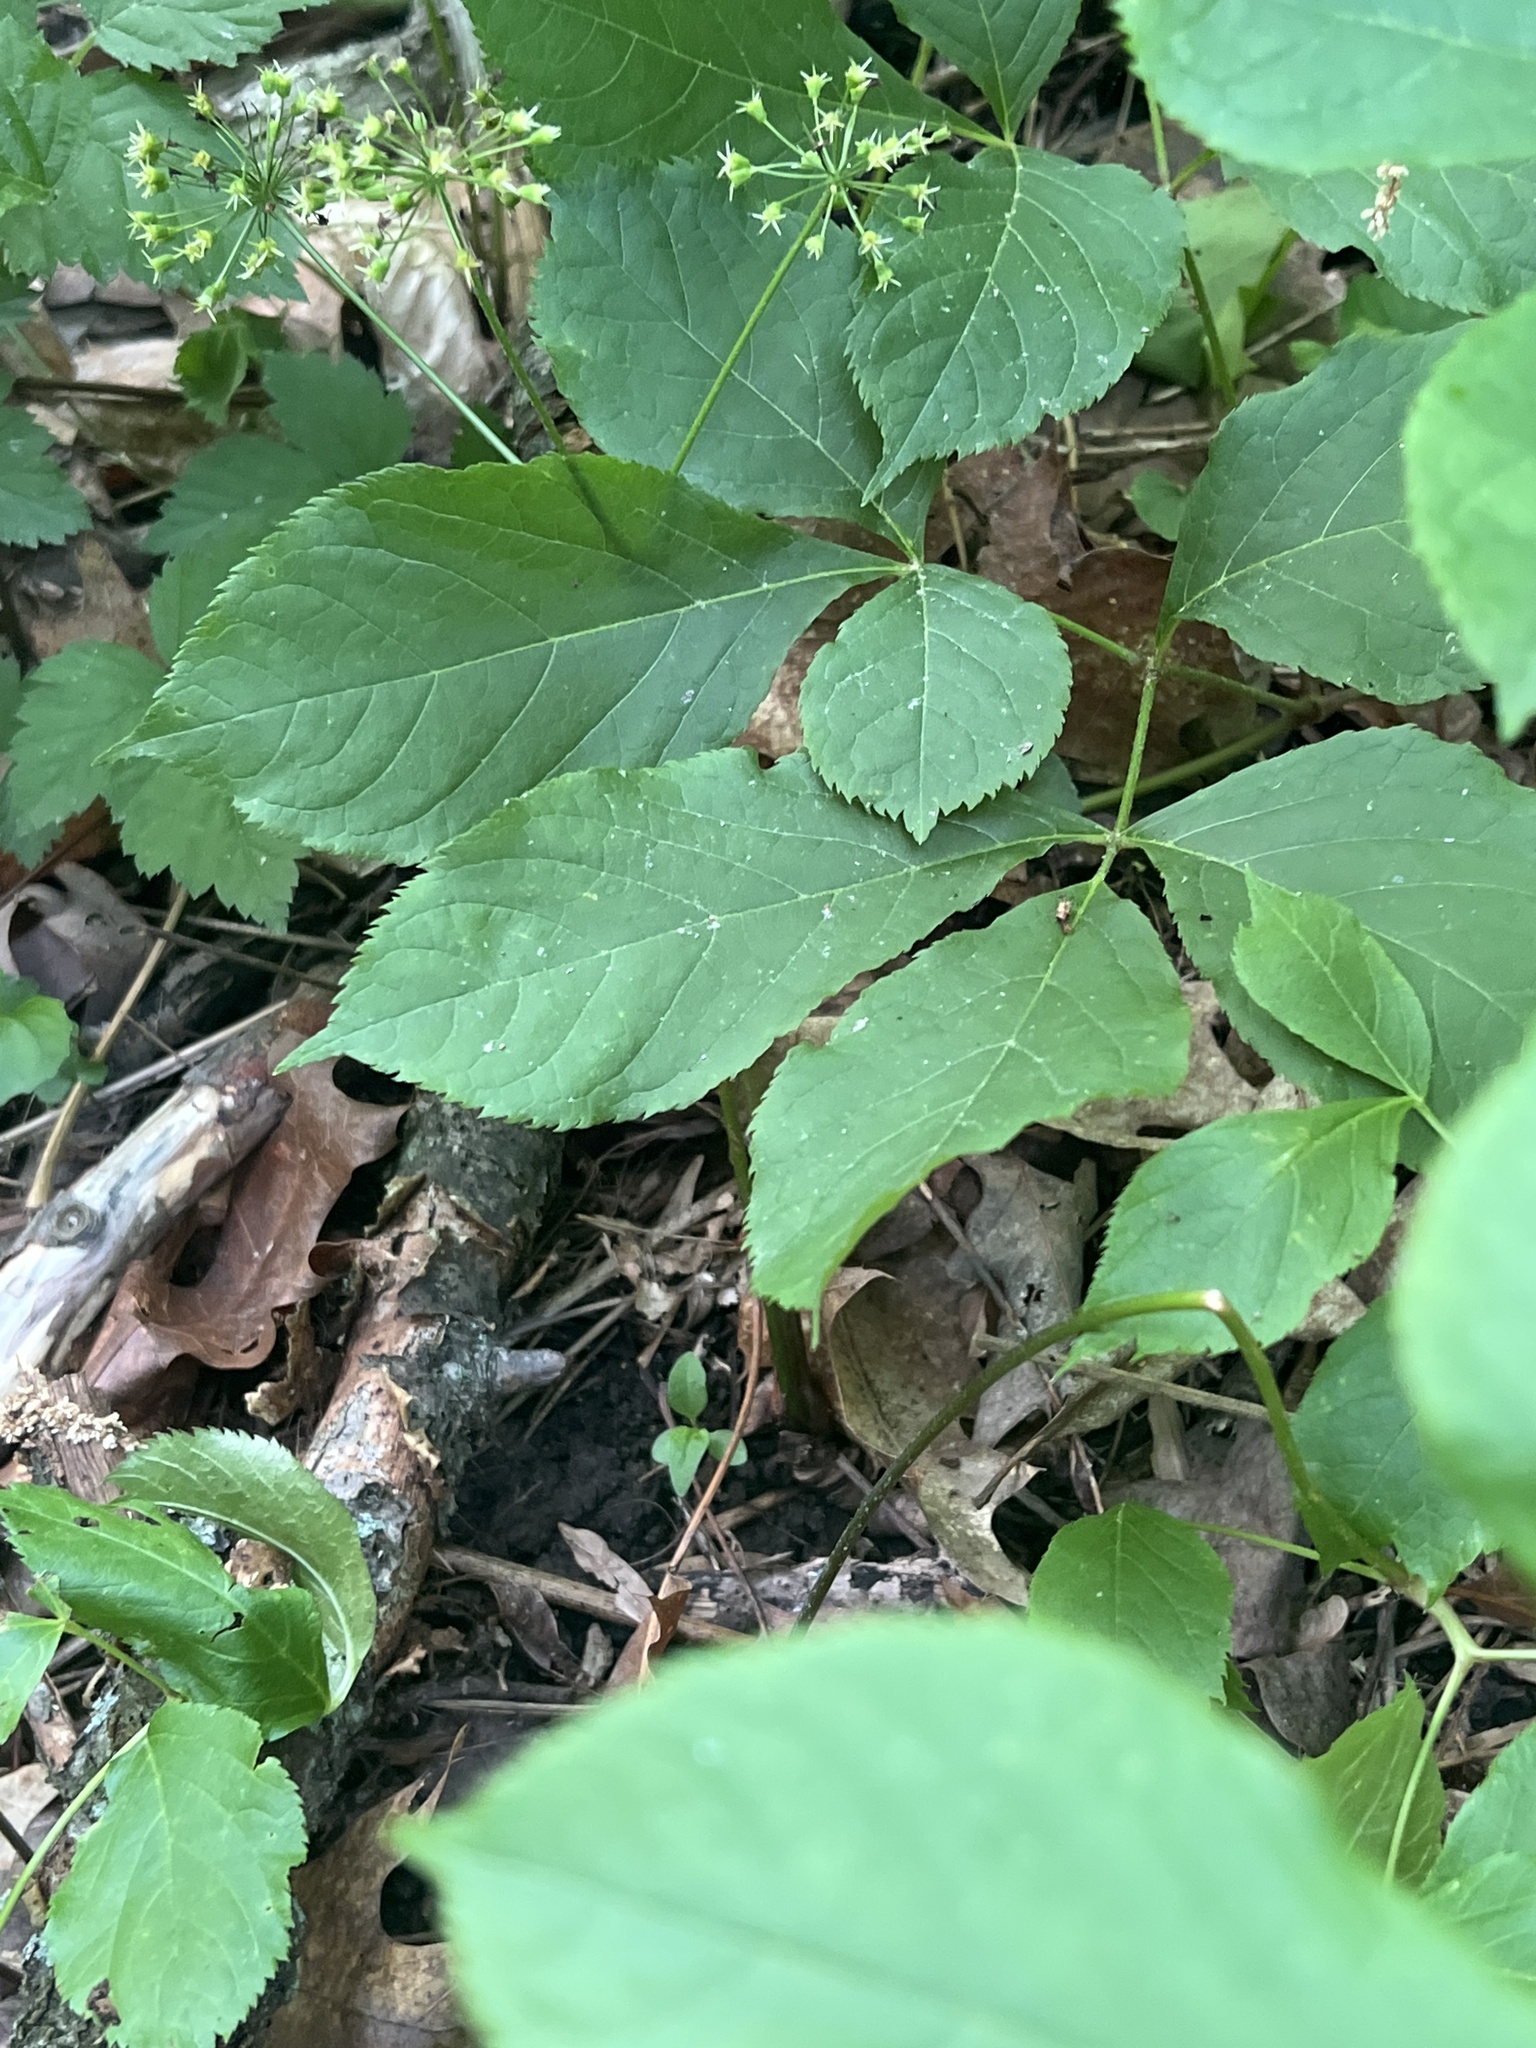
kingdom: Plantae
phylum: Tracheophyta
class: Magnoliopsida
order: Apiales
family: Araliaceae
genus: Aralia
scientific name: Aralia nudicaulis
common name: Wild sarsaparilla
